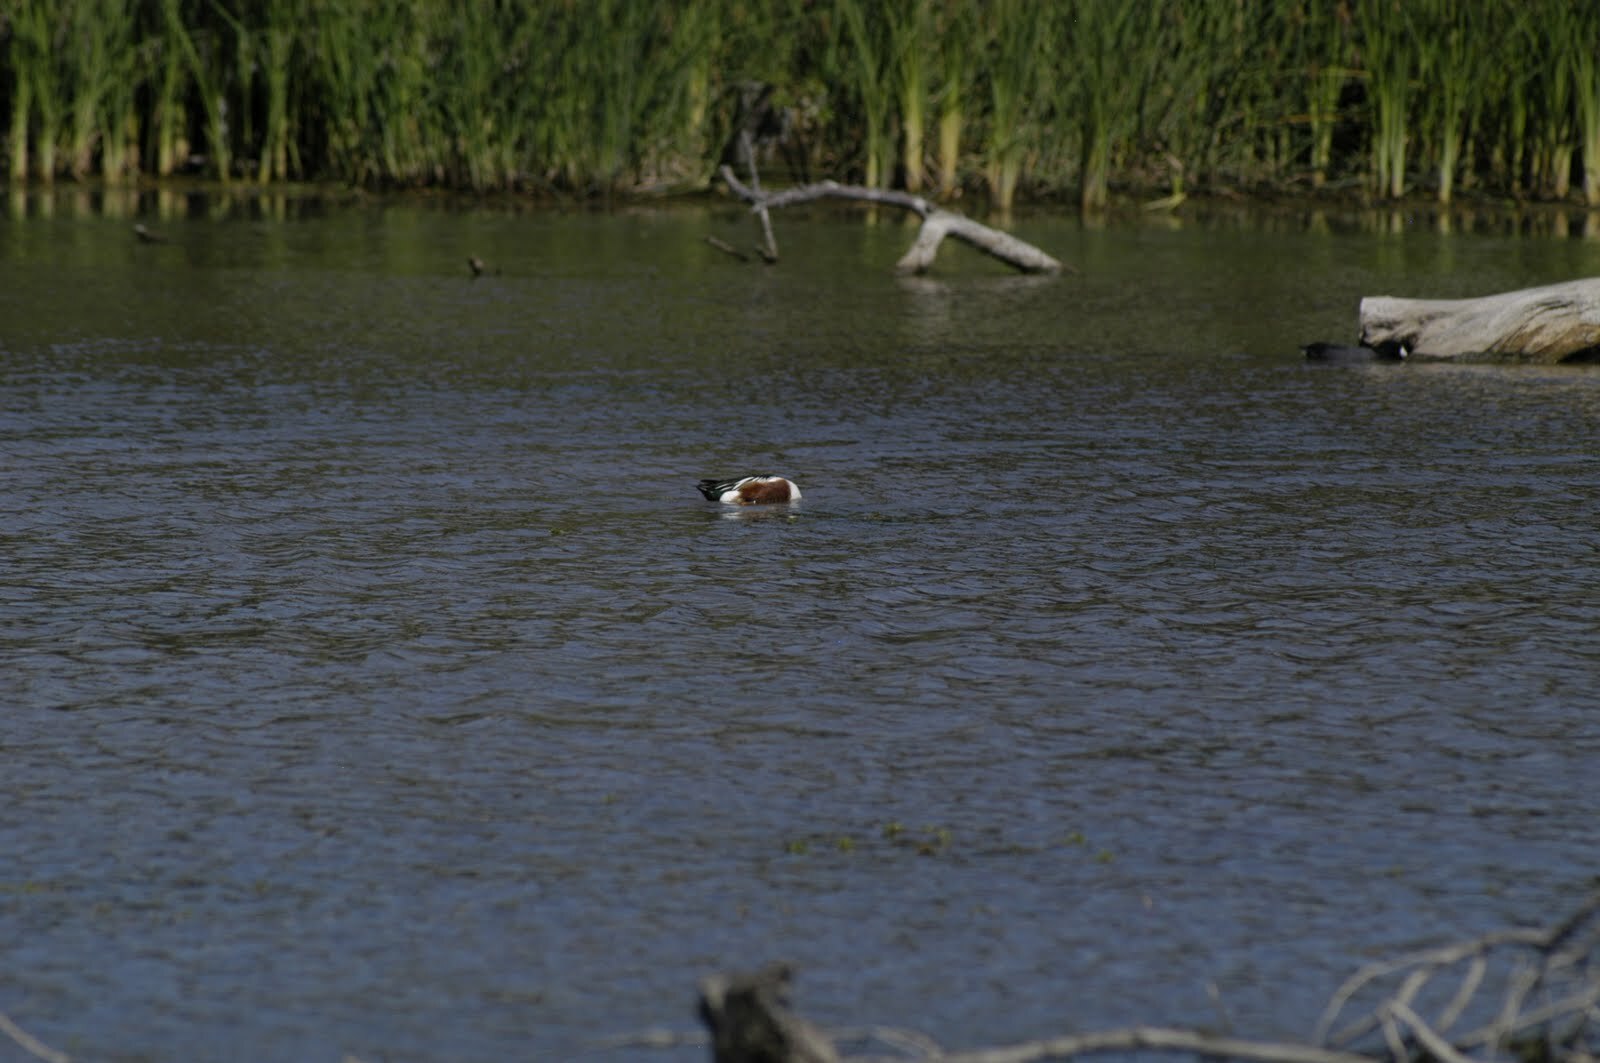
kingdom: Animalia
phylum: Chordata
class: Aves
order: Anseriformes
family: Anatidae
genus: Spatula
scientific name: Spatula clypeata
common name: Northern shoveler
